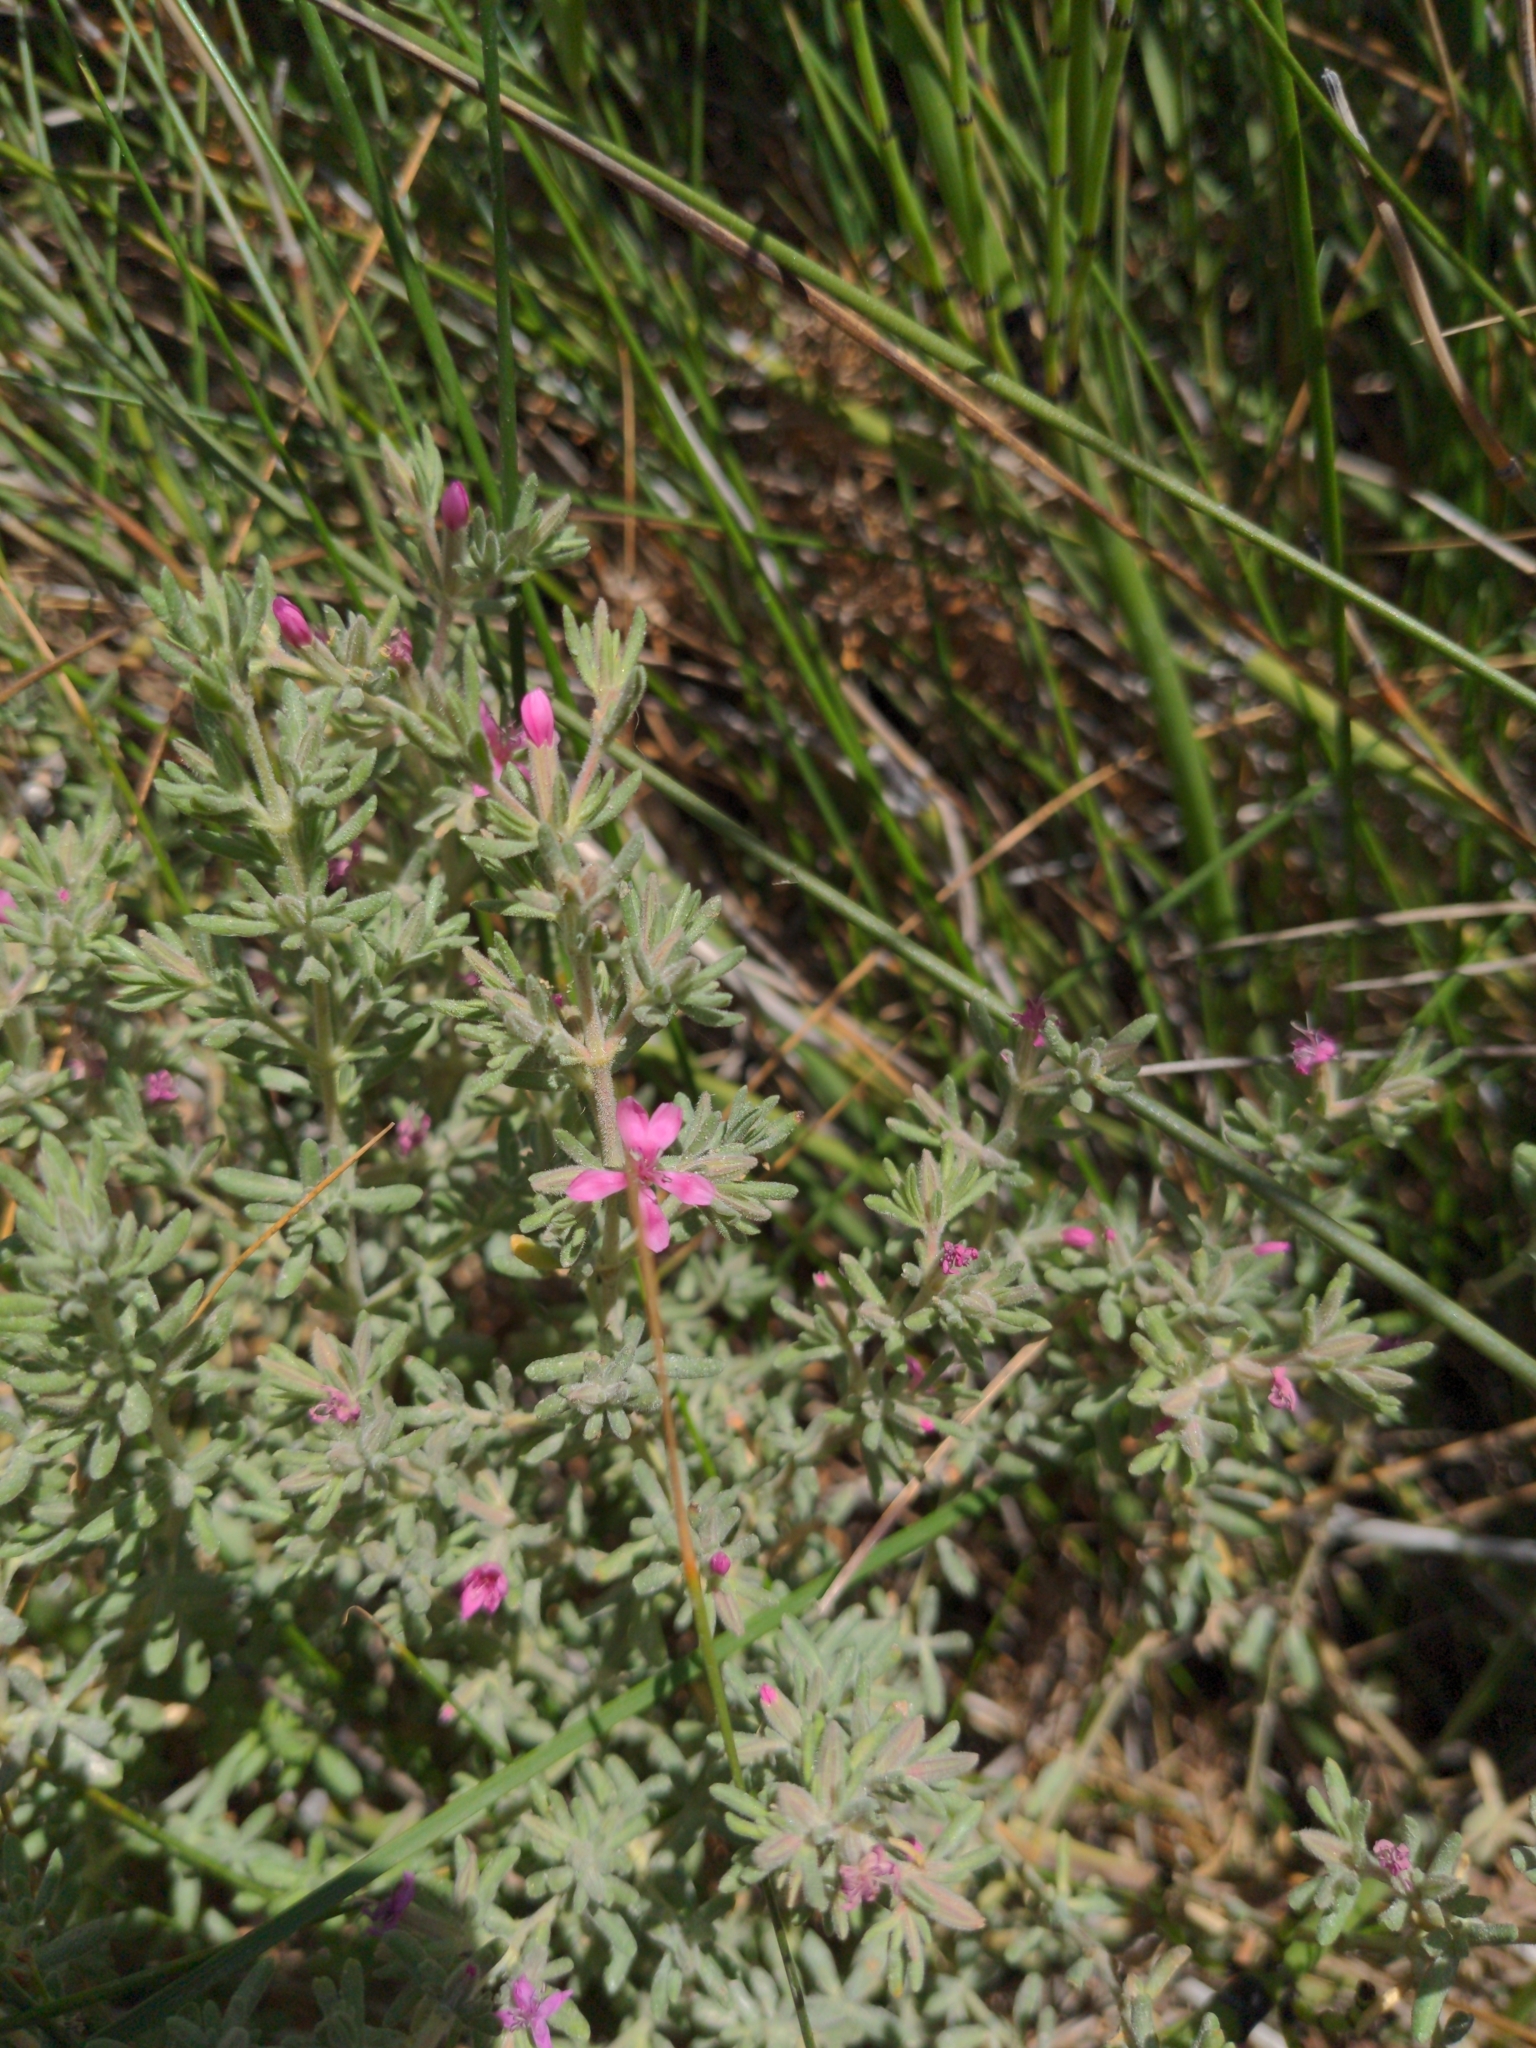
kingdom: Plantae
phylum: Tracheophyta
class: Magnoliopsida
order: Caryophyllales
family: Frankeniaceae
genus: Frankenia
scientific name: Frankenia salina
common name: Alkali seaheath
